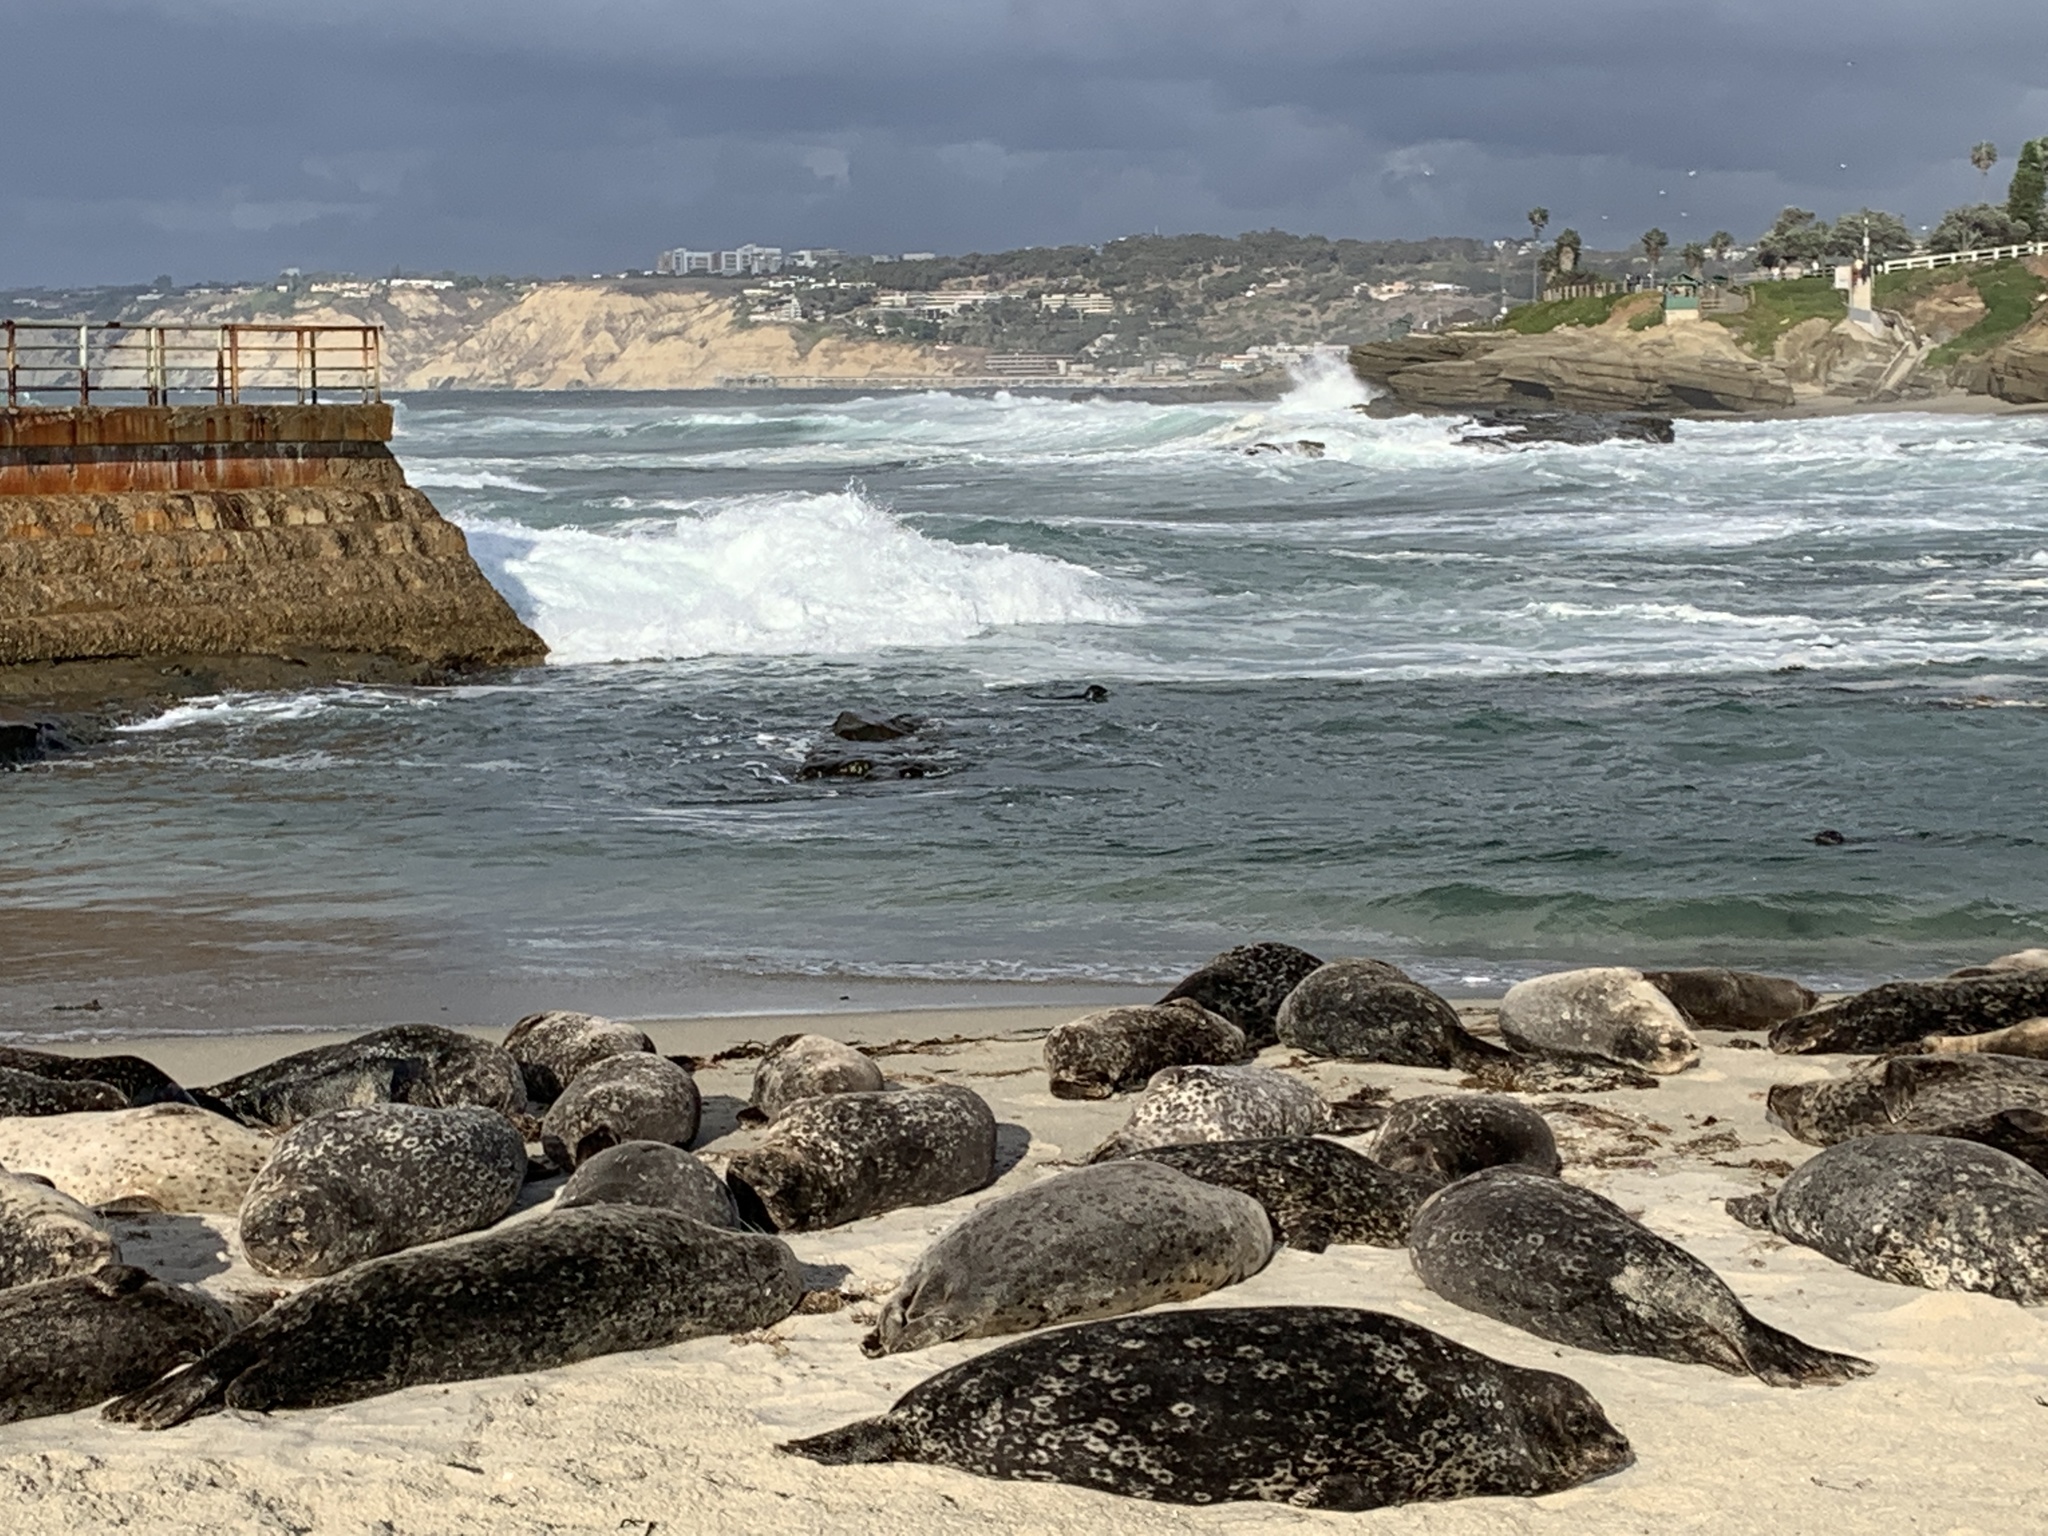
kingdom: Animalia
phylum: Chordata
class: Mammalia
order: Carnivora
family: Phocidae
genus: Phoca
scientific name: Phoca vitulina
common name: Harbor seal
